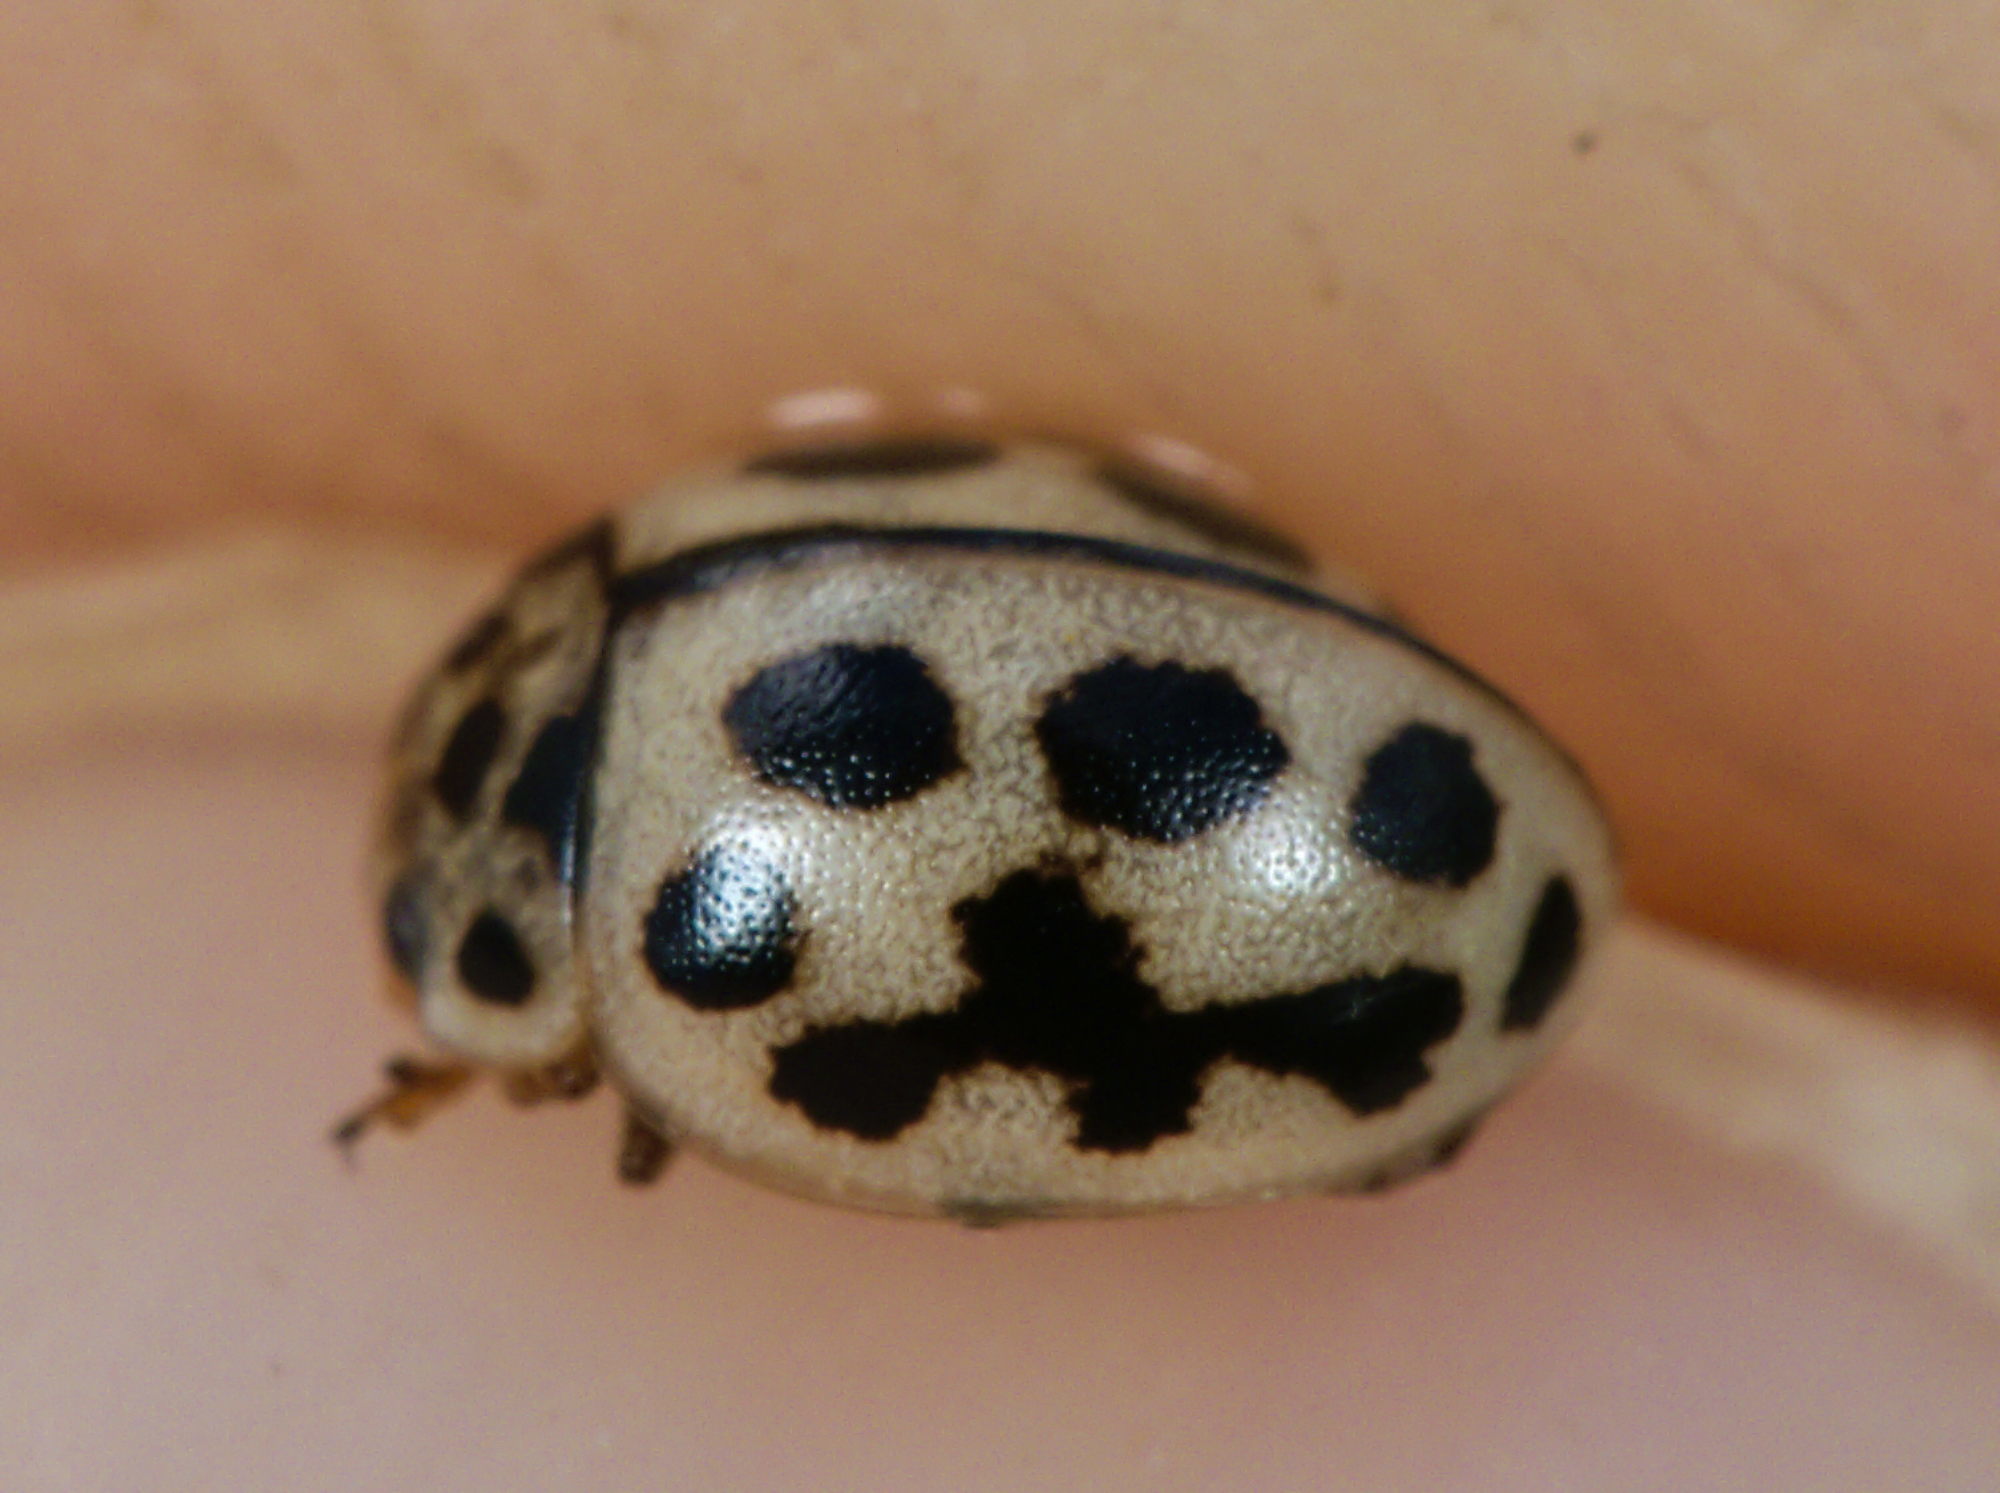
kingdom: Animalia
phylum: Arthropoda
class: Insecta
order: Coleoptera
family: Coccinellidae
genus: Tytthaspis
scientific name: Tytthaspis sedecimpunctata
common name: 16-spot ladybird
